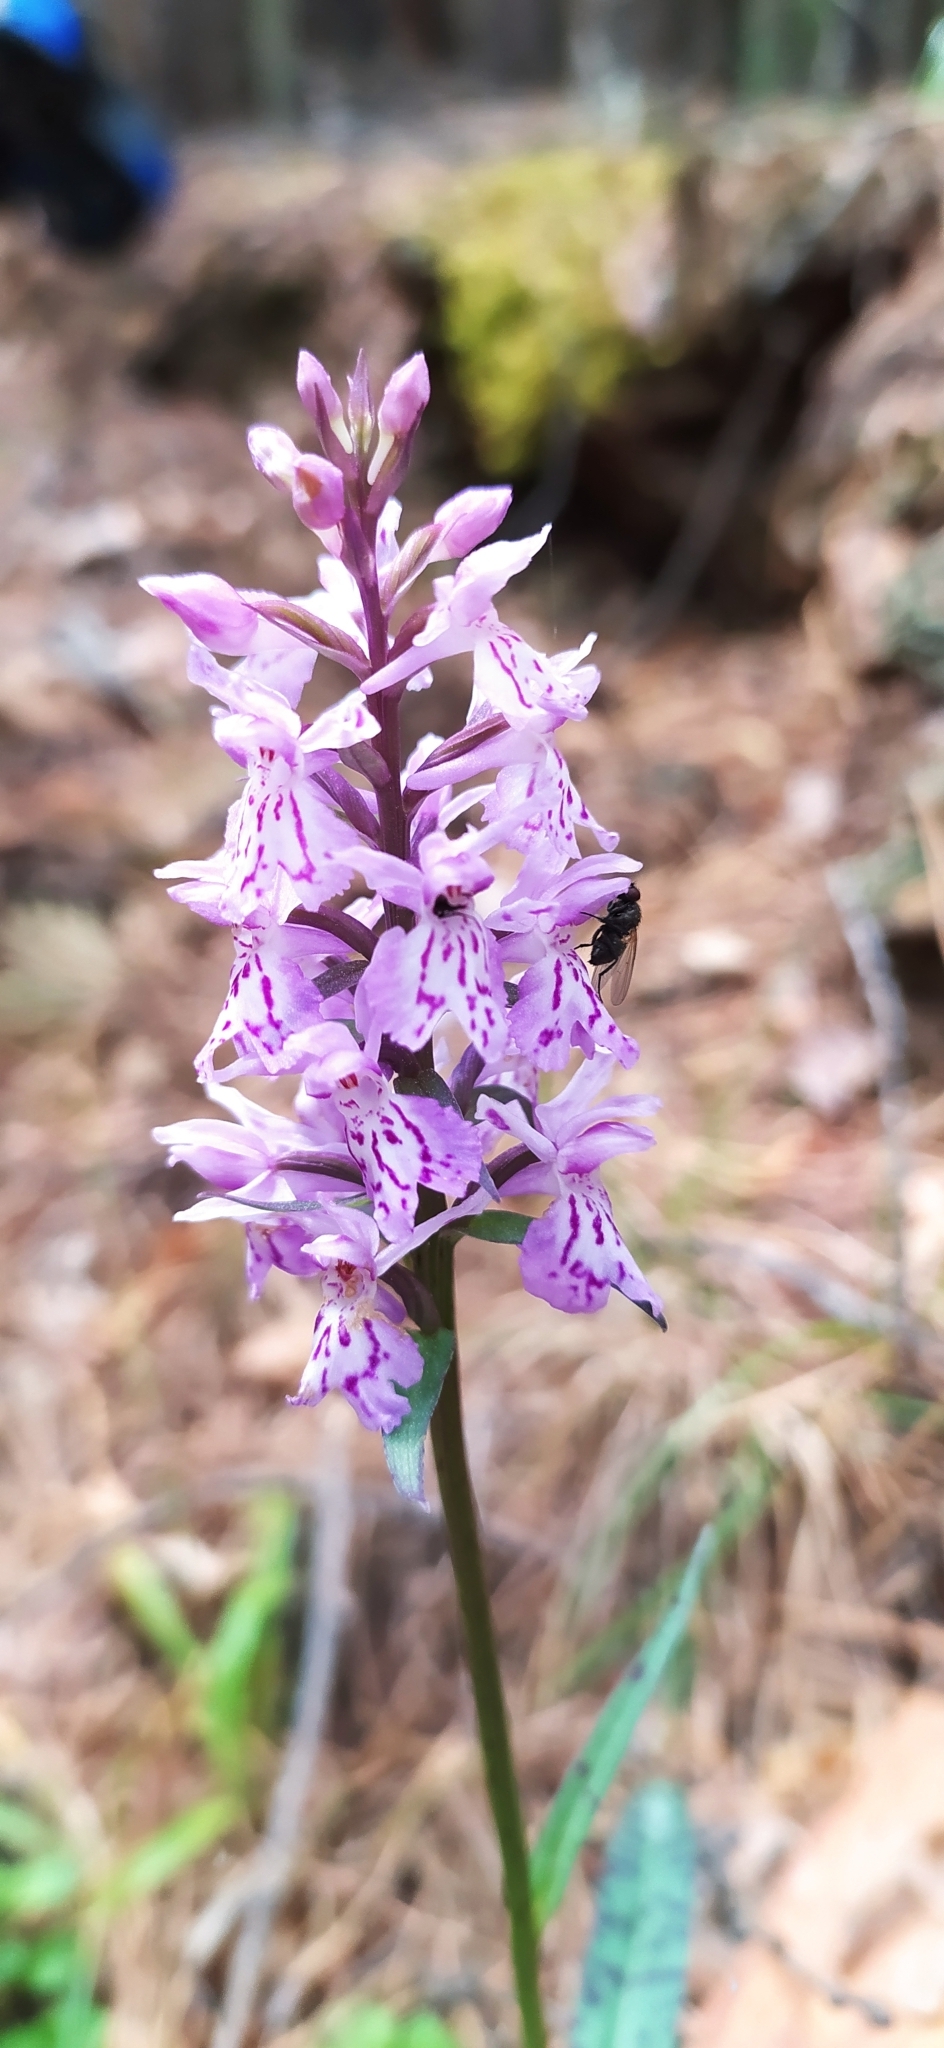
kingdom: Plantae
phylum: Tracheophyta
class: Liliopsida
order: Asparagales
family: Orchidaceae
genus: Dactylorhiza
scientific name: Dactylorhiza maculata
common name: Heath spotted-orchid
